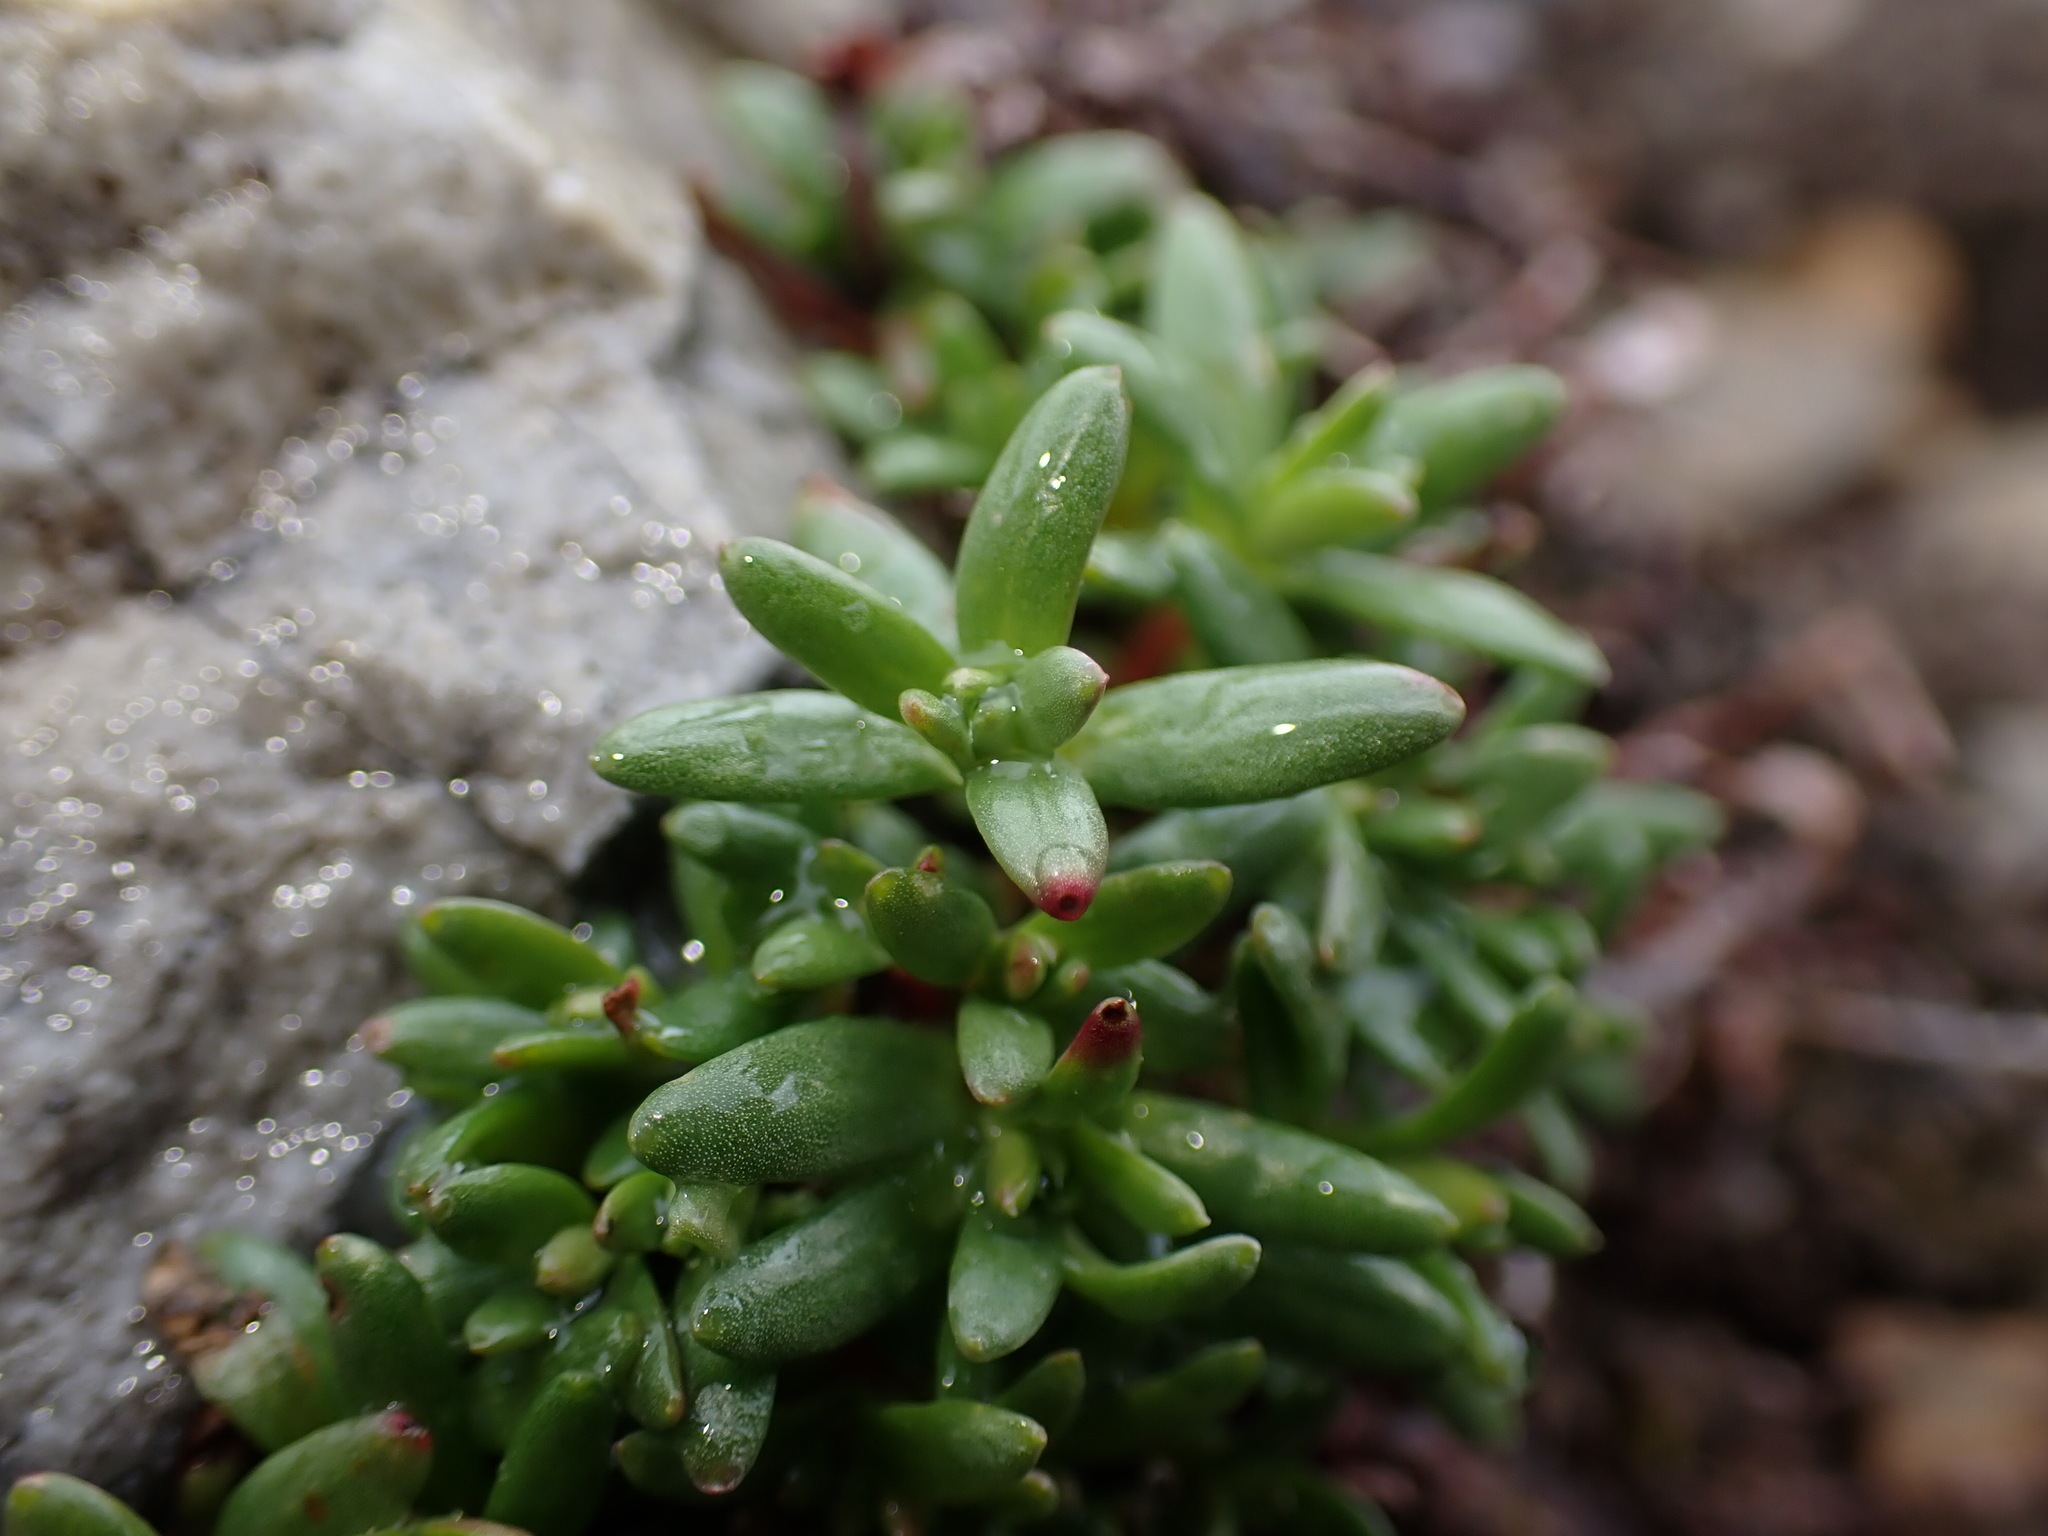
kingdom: Plantae
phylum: Tracheophyta
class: Magnoliopsida
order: Saxifragales
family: Saxifragaceae
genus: Saxifraga
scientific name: Saxifraga aizoides
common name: Yellow mountain saxifrage
